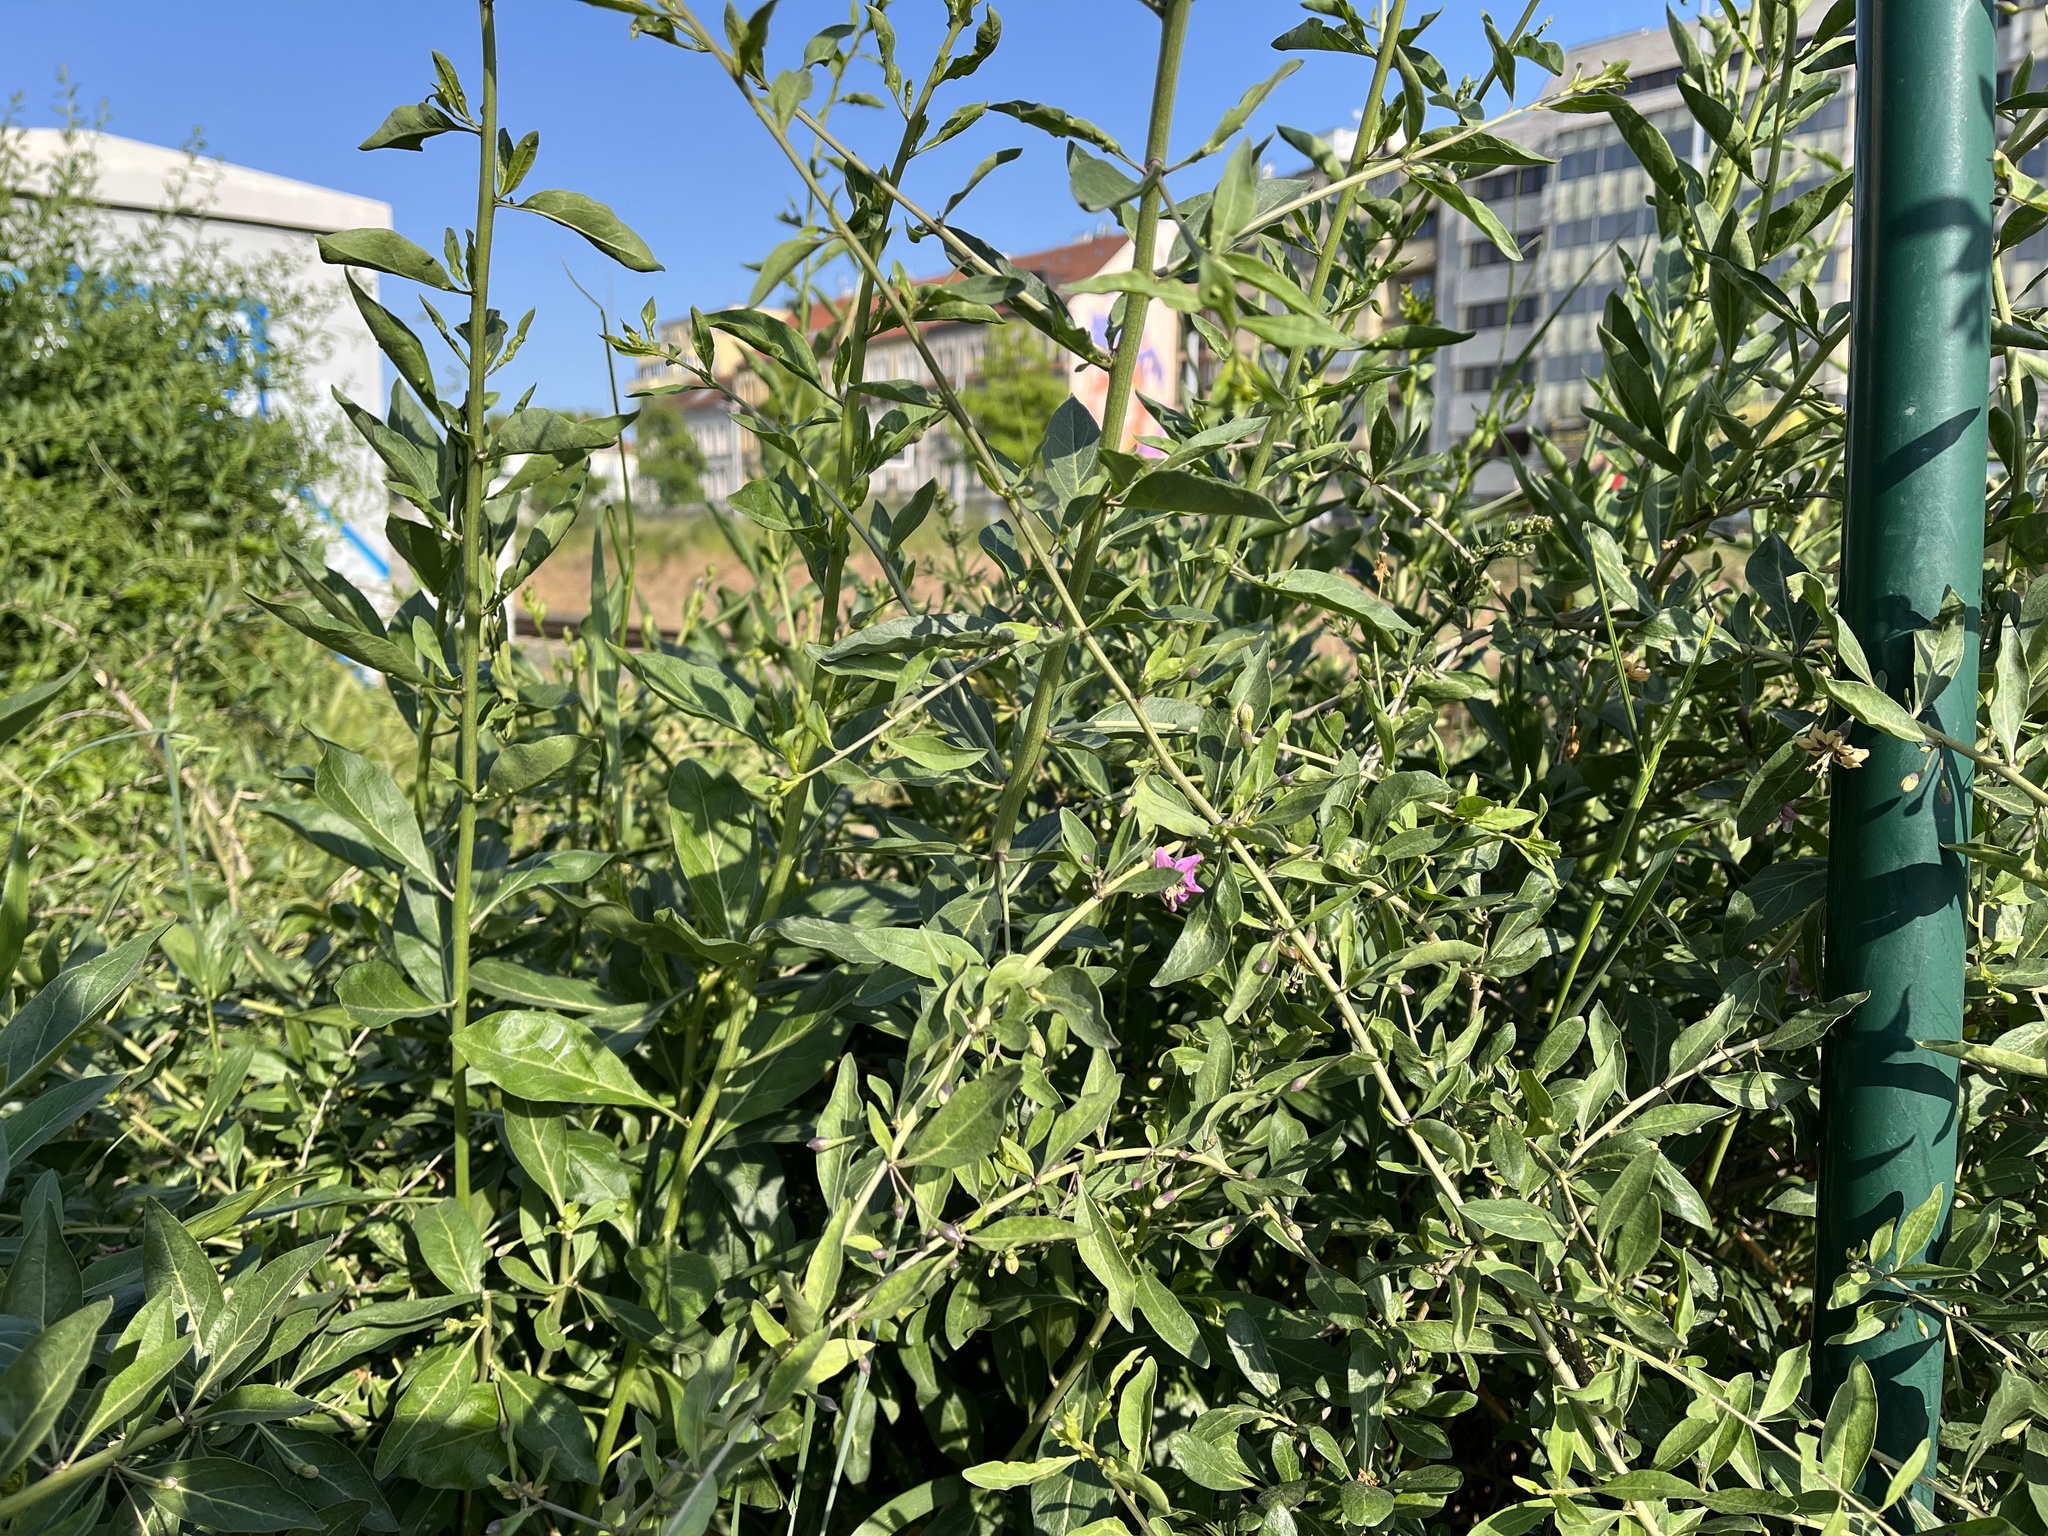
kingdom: Plantae
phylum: Tracheophyta
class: Magnoliopsida
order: Solanales
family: Solanaceae
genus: Lycium
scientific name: Lycium barbarum
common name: Duke of argyll's teaplant
